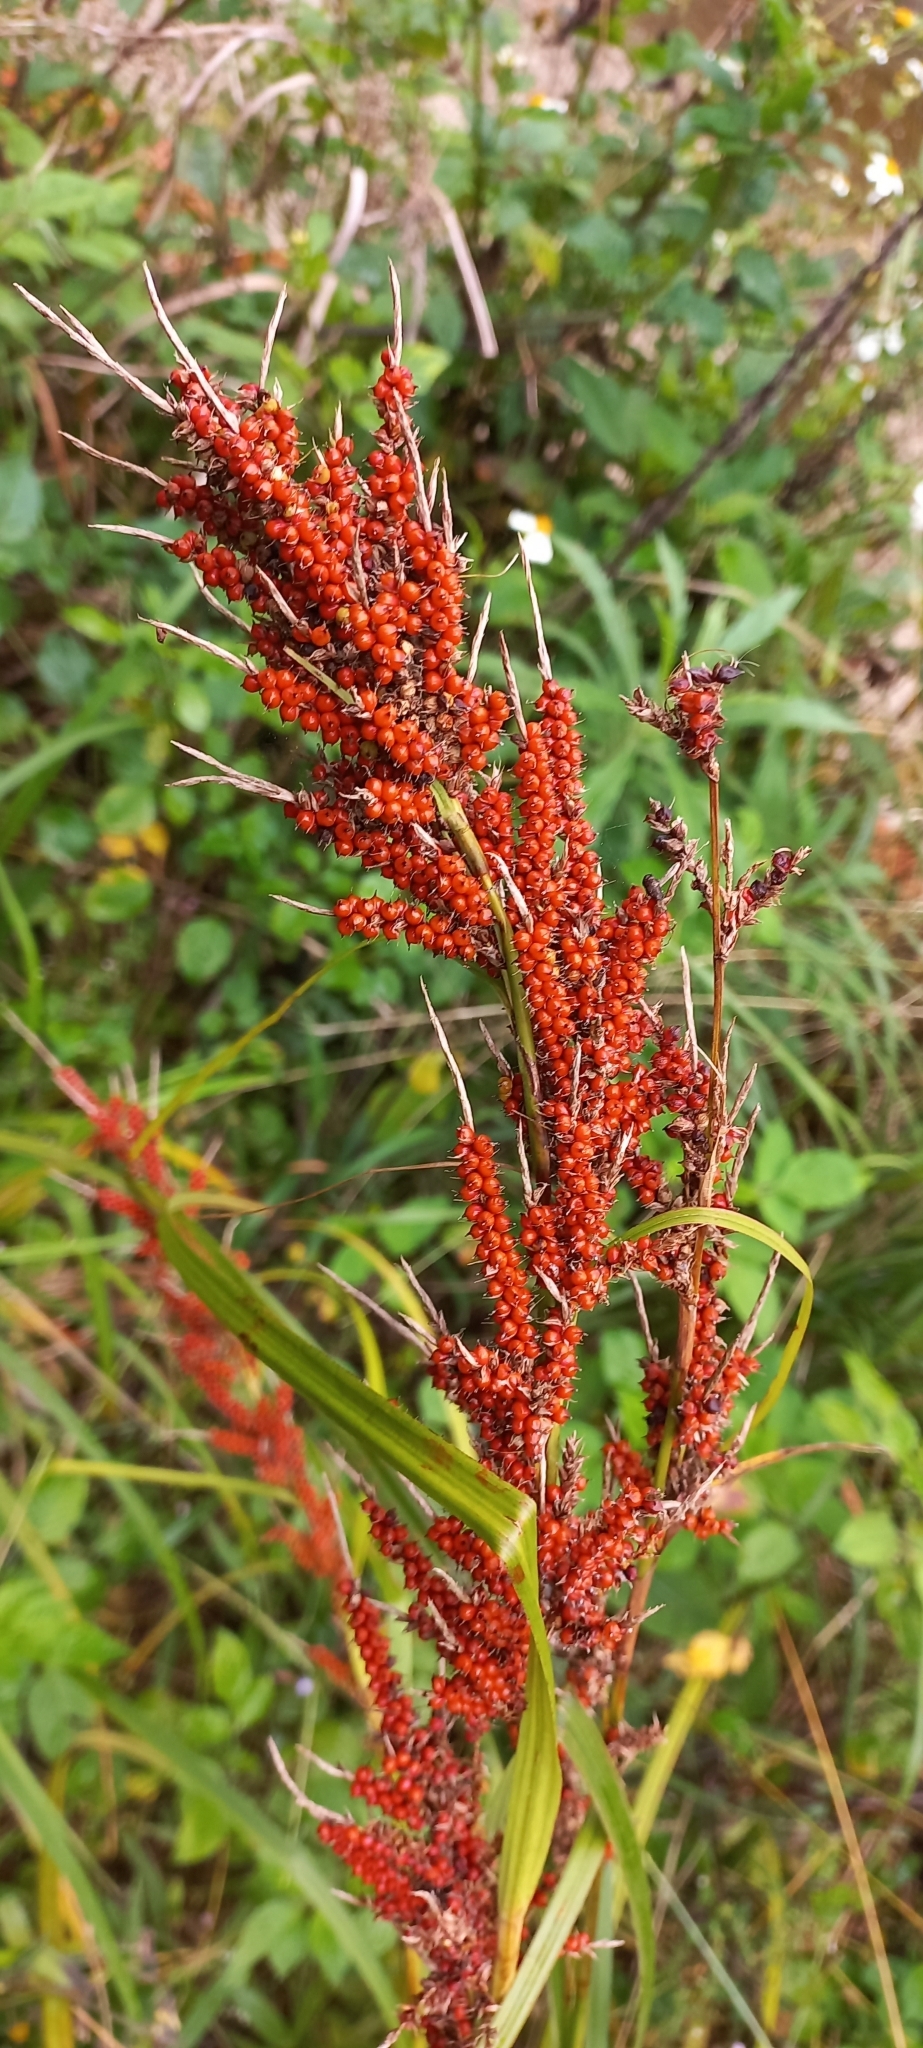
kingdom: Plantae
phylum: Tracheophyta
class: Liliopsida
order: Poales
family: Cyperaceae
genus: Carex
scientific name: Carex baccans
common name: Crimson seeded sedge
